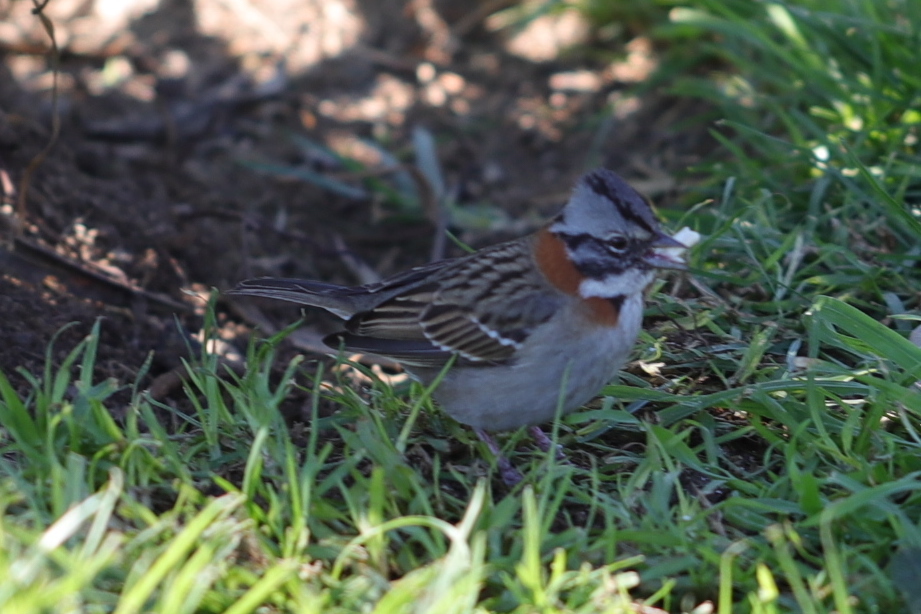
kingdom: Animalia
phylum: Chordata
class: Aves
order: Passeriformes
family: Passerellidae
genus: Zonotrichia
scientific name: Zonotrichia capensis
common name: Rufous-collared sparrow
